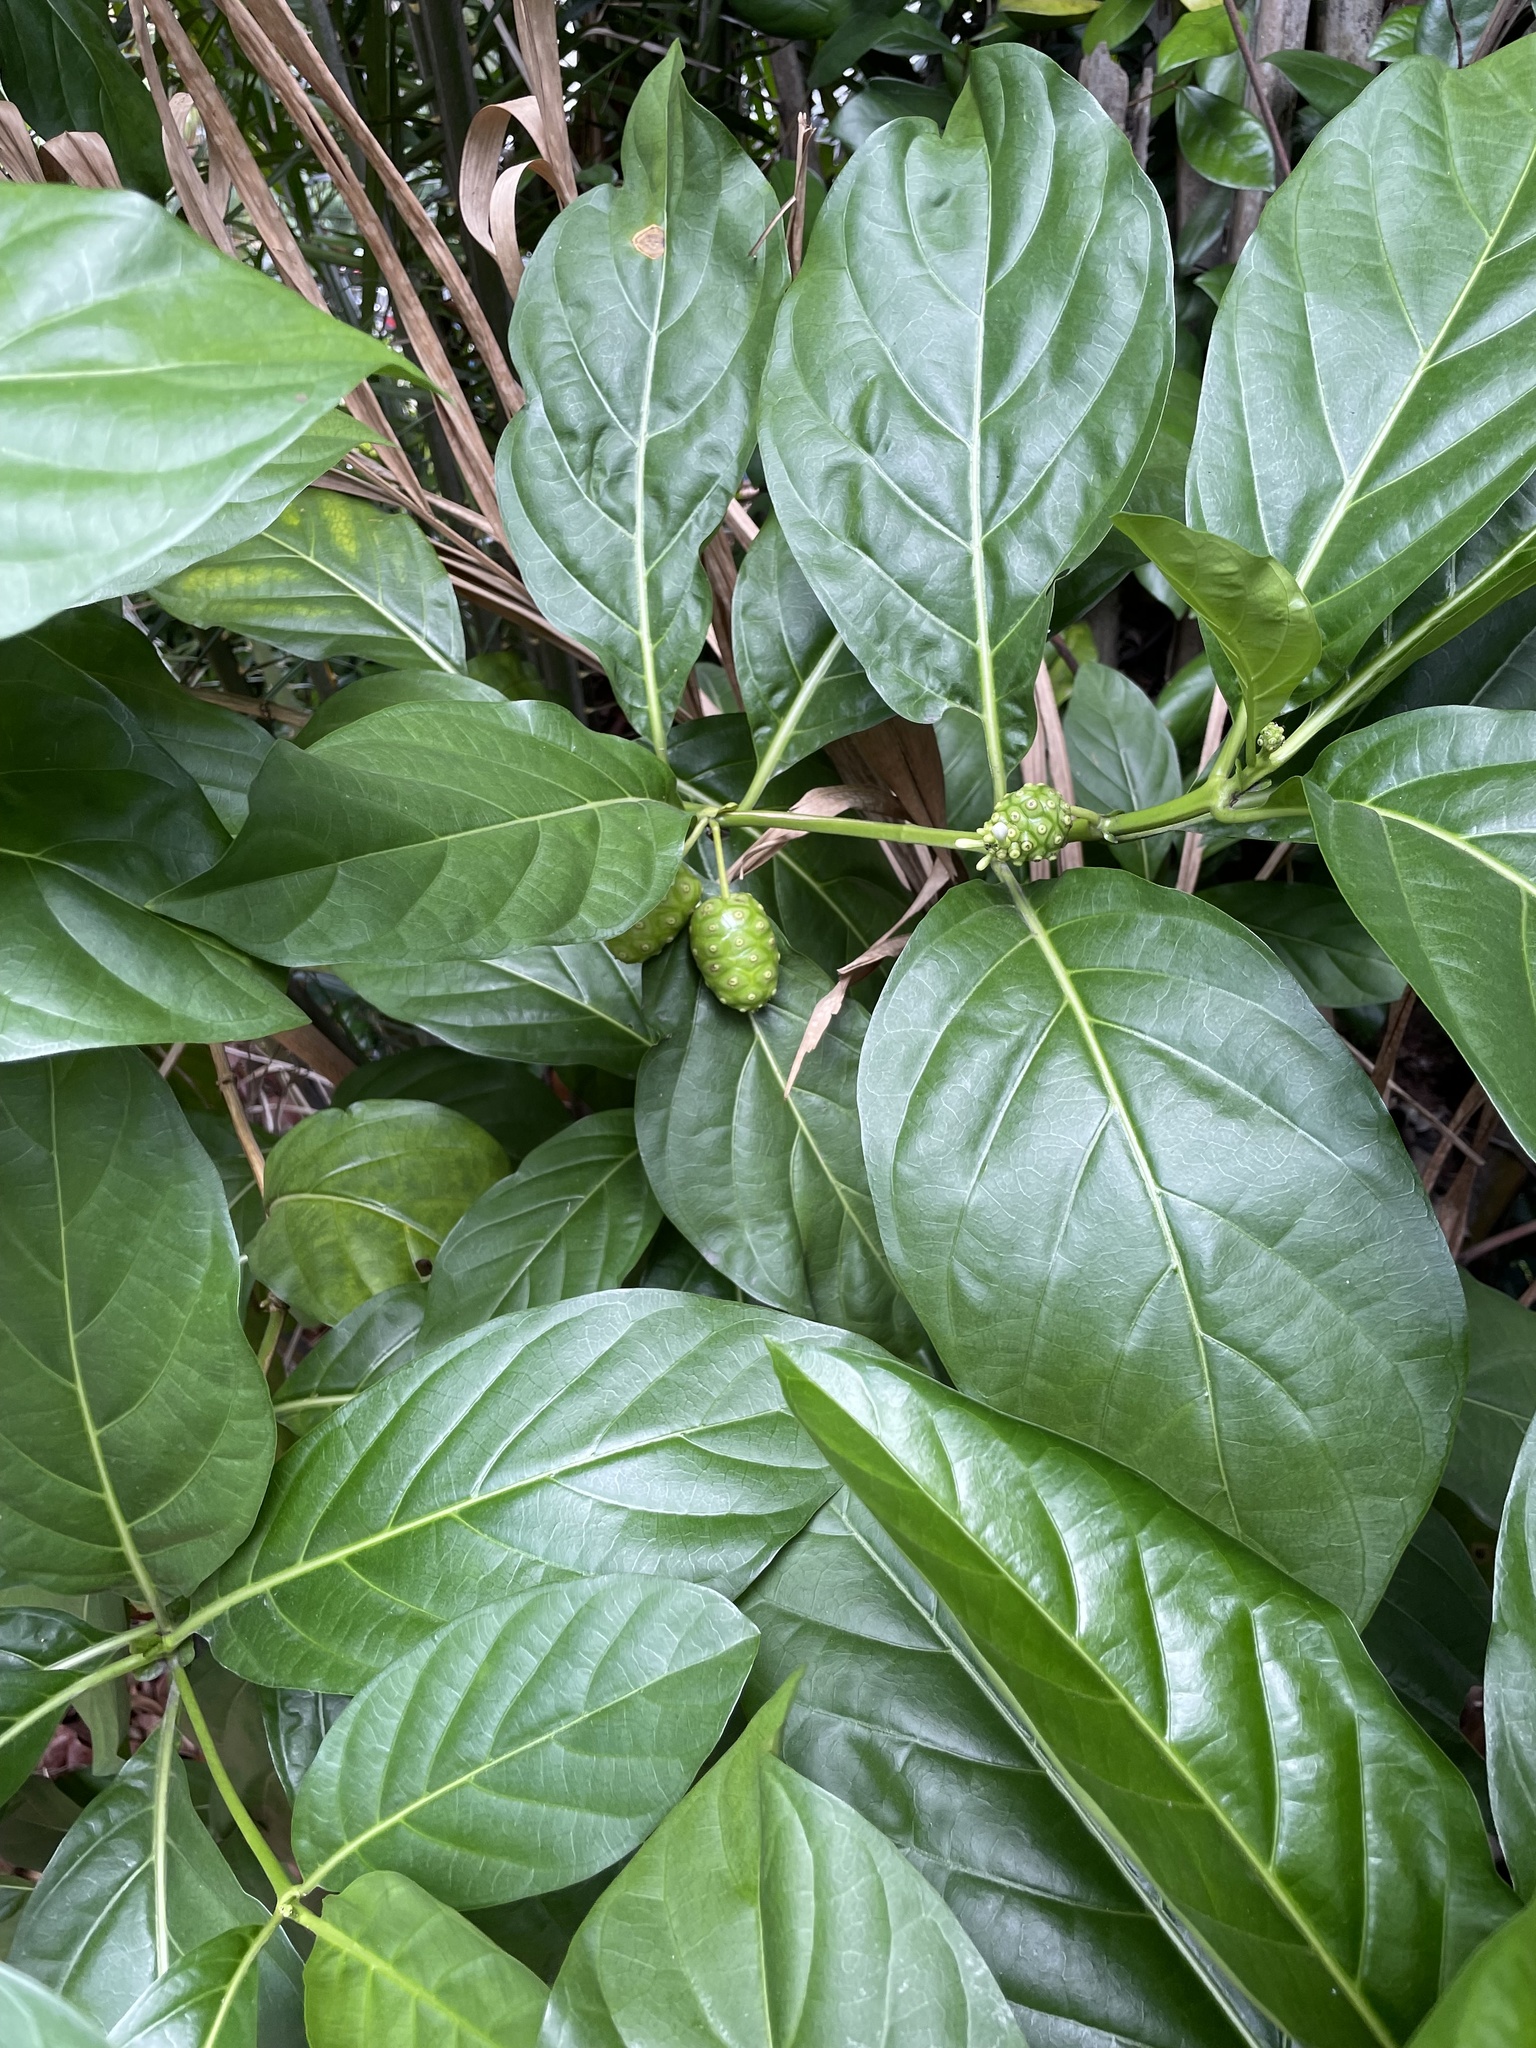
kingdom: Plantae
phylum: Tracheophyta
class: Magnoliopsida
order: Gentianales
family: Rubiaceae
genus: Morinda
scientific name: Morinda citrifolia
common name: Indian-mulberry
